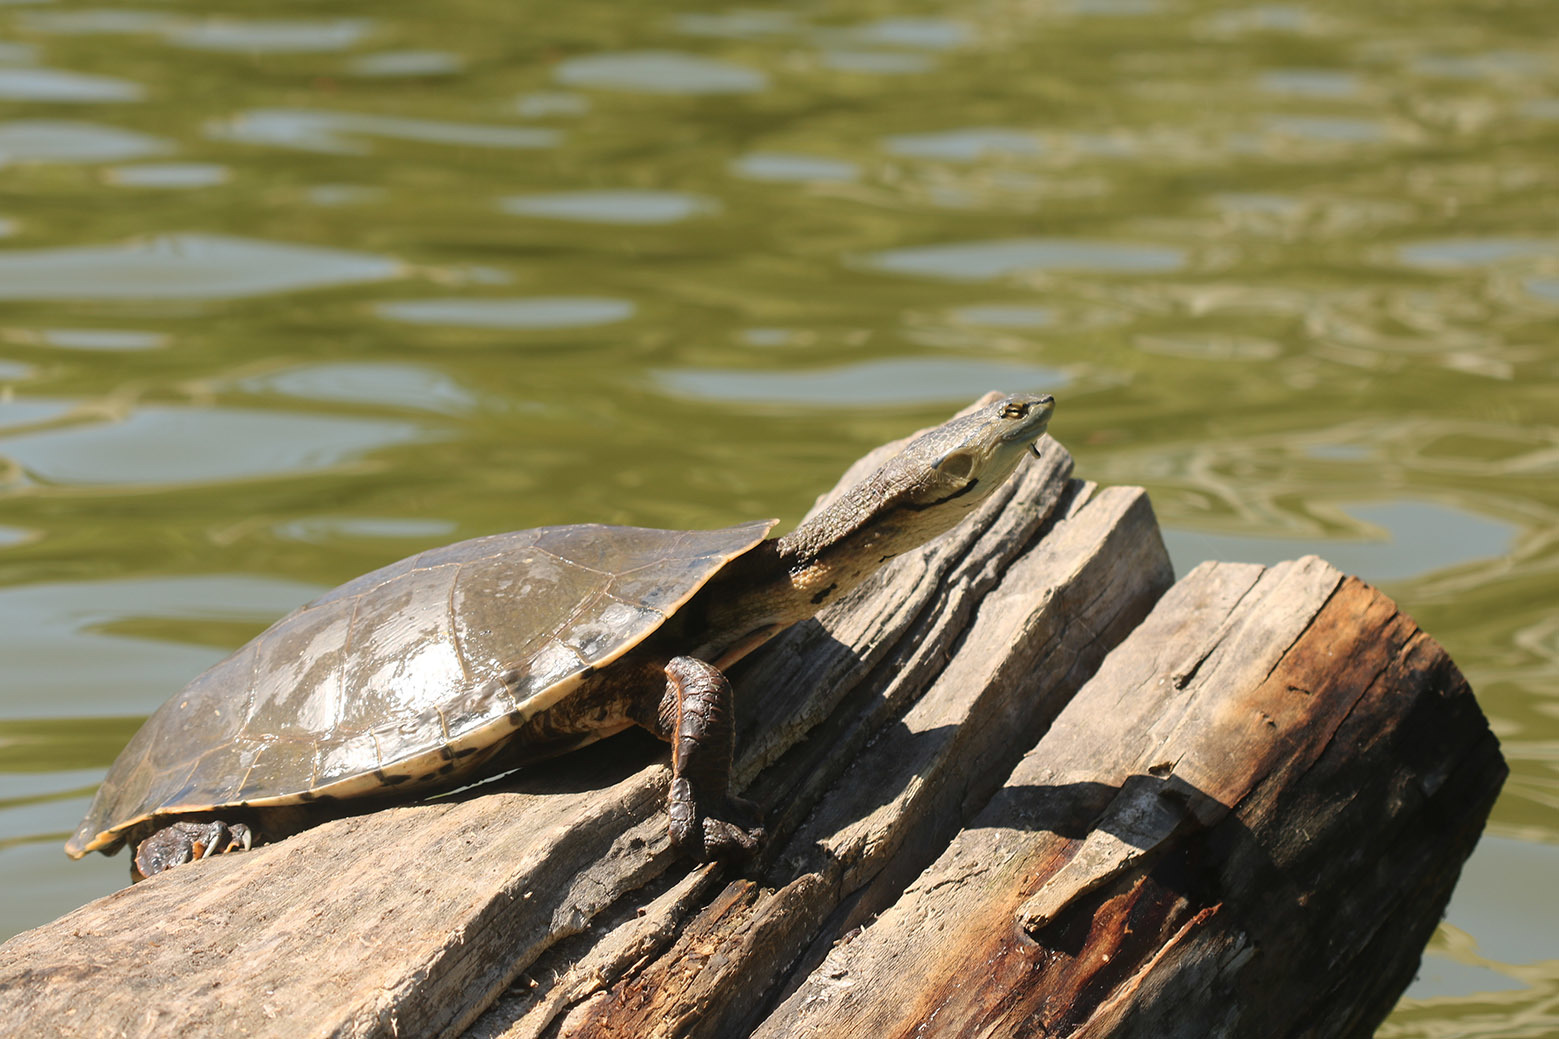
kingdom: Animalia
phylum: Chordata
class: Testudines
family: Chelidae
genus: Phrynops
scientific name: Phrynops hilarii
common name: Side-necked turtle of saint hillaire
